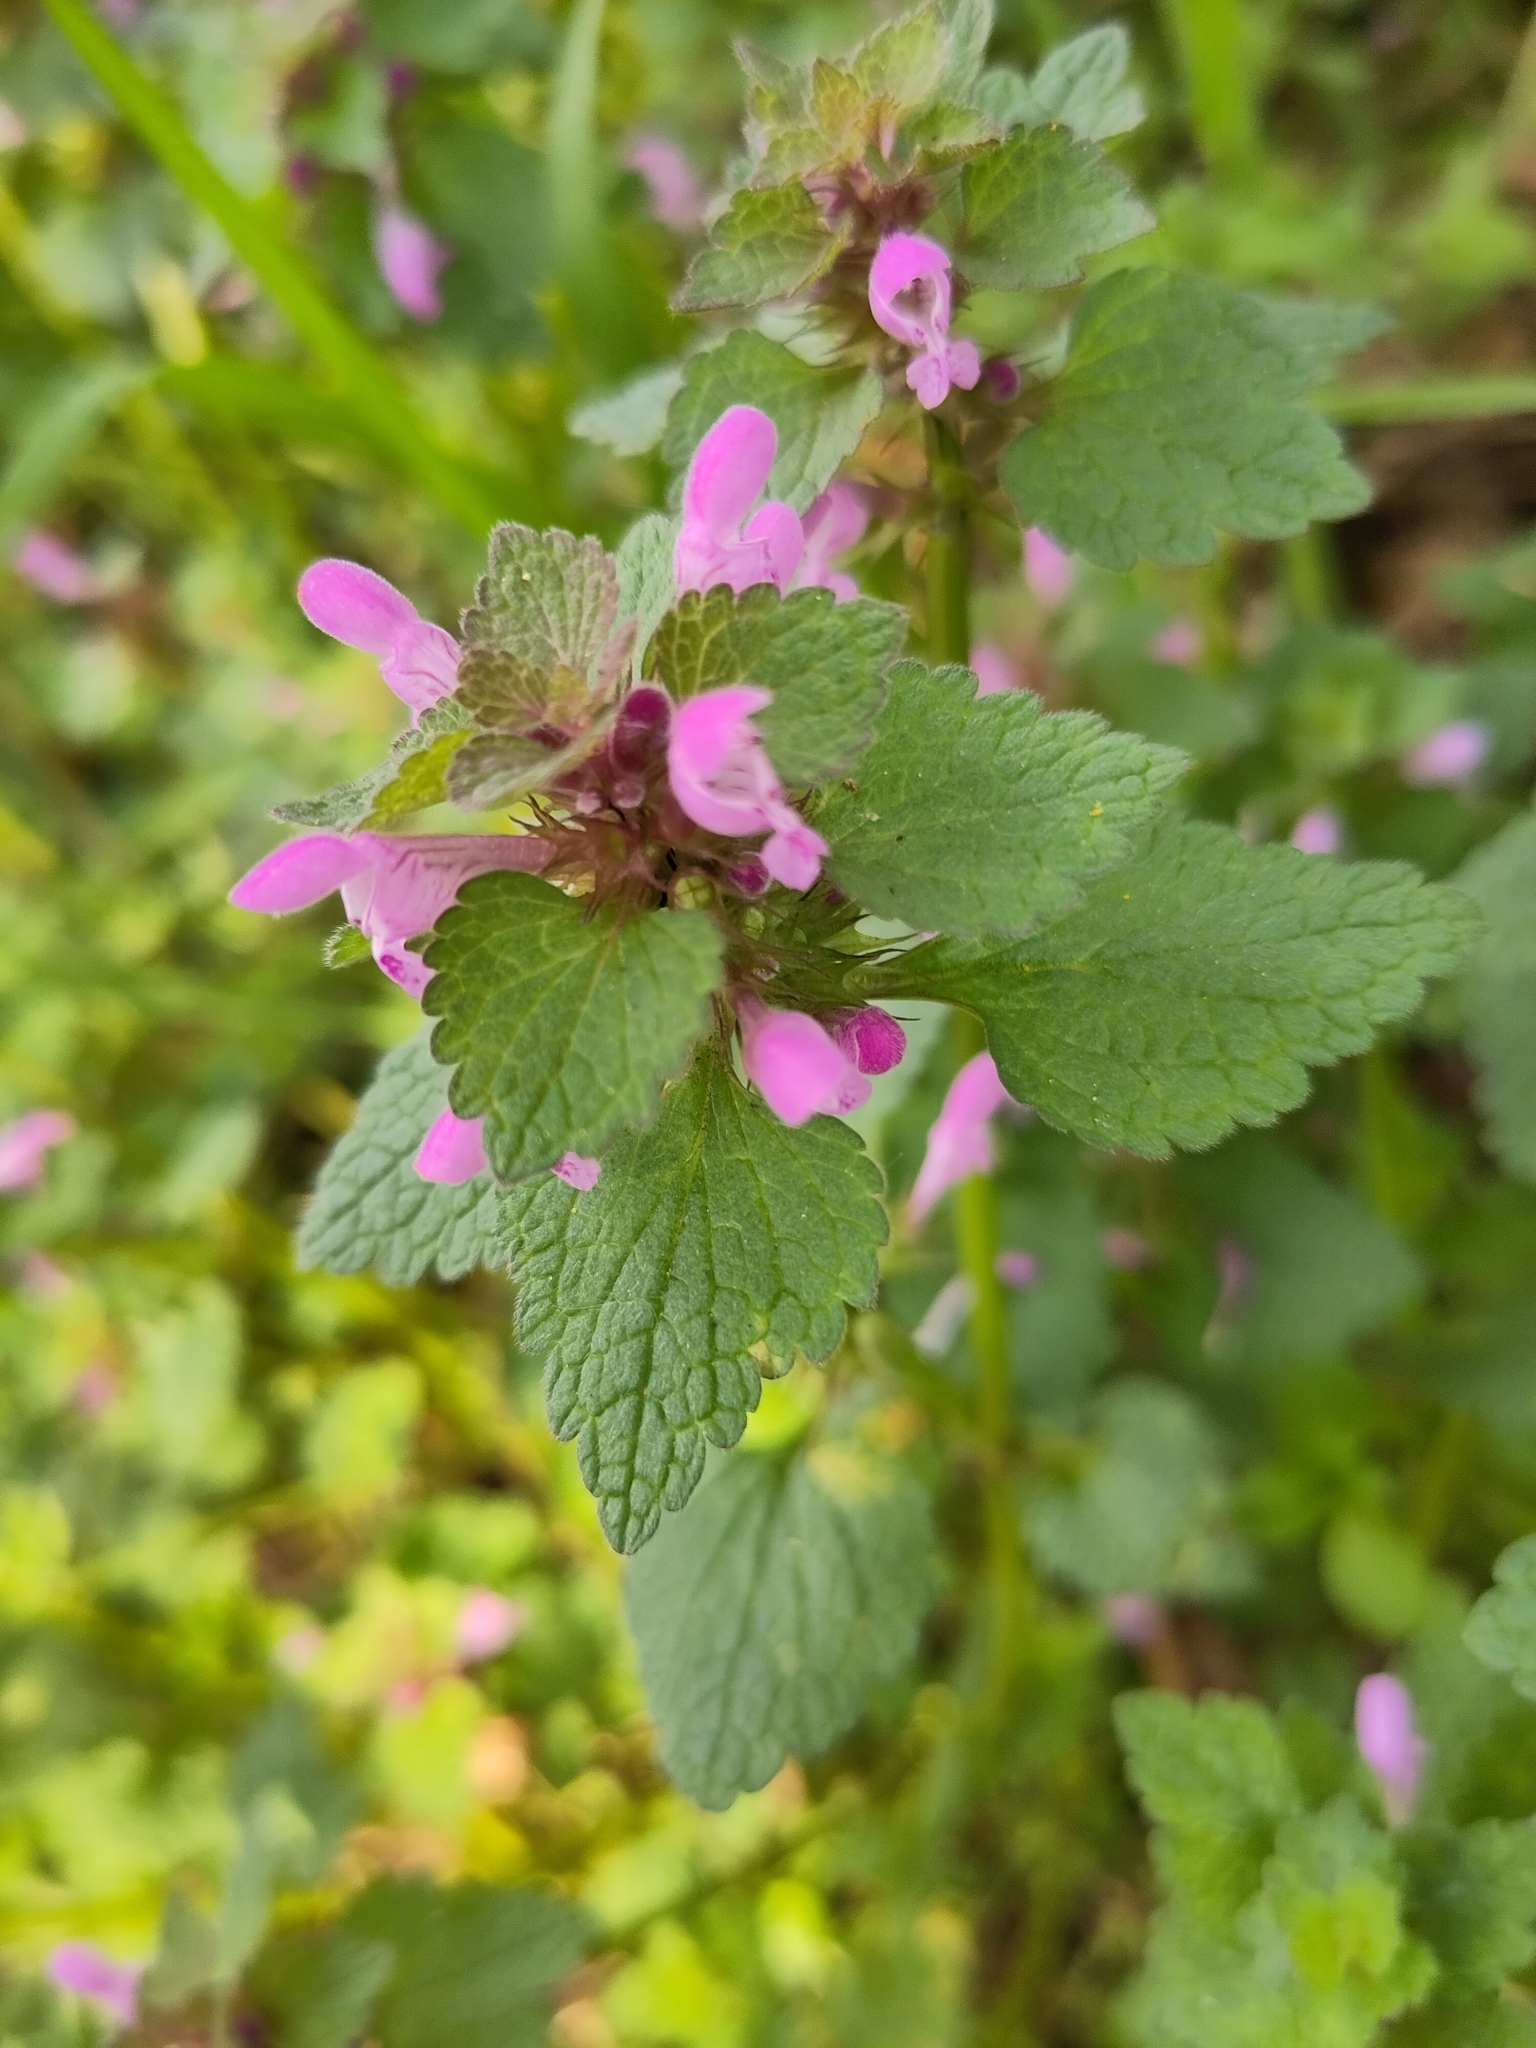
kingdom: Plantae
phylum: Tracheophyta
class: Magnoliopsida
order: Lamiales
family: Lamiaceae
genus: Lamium
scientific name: Lamium purpureum
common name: Red dead-nettle
